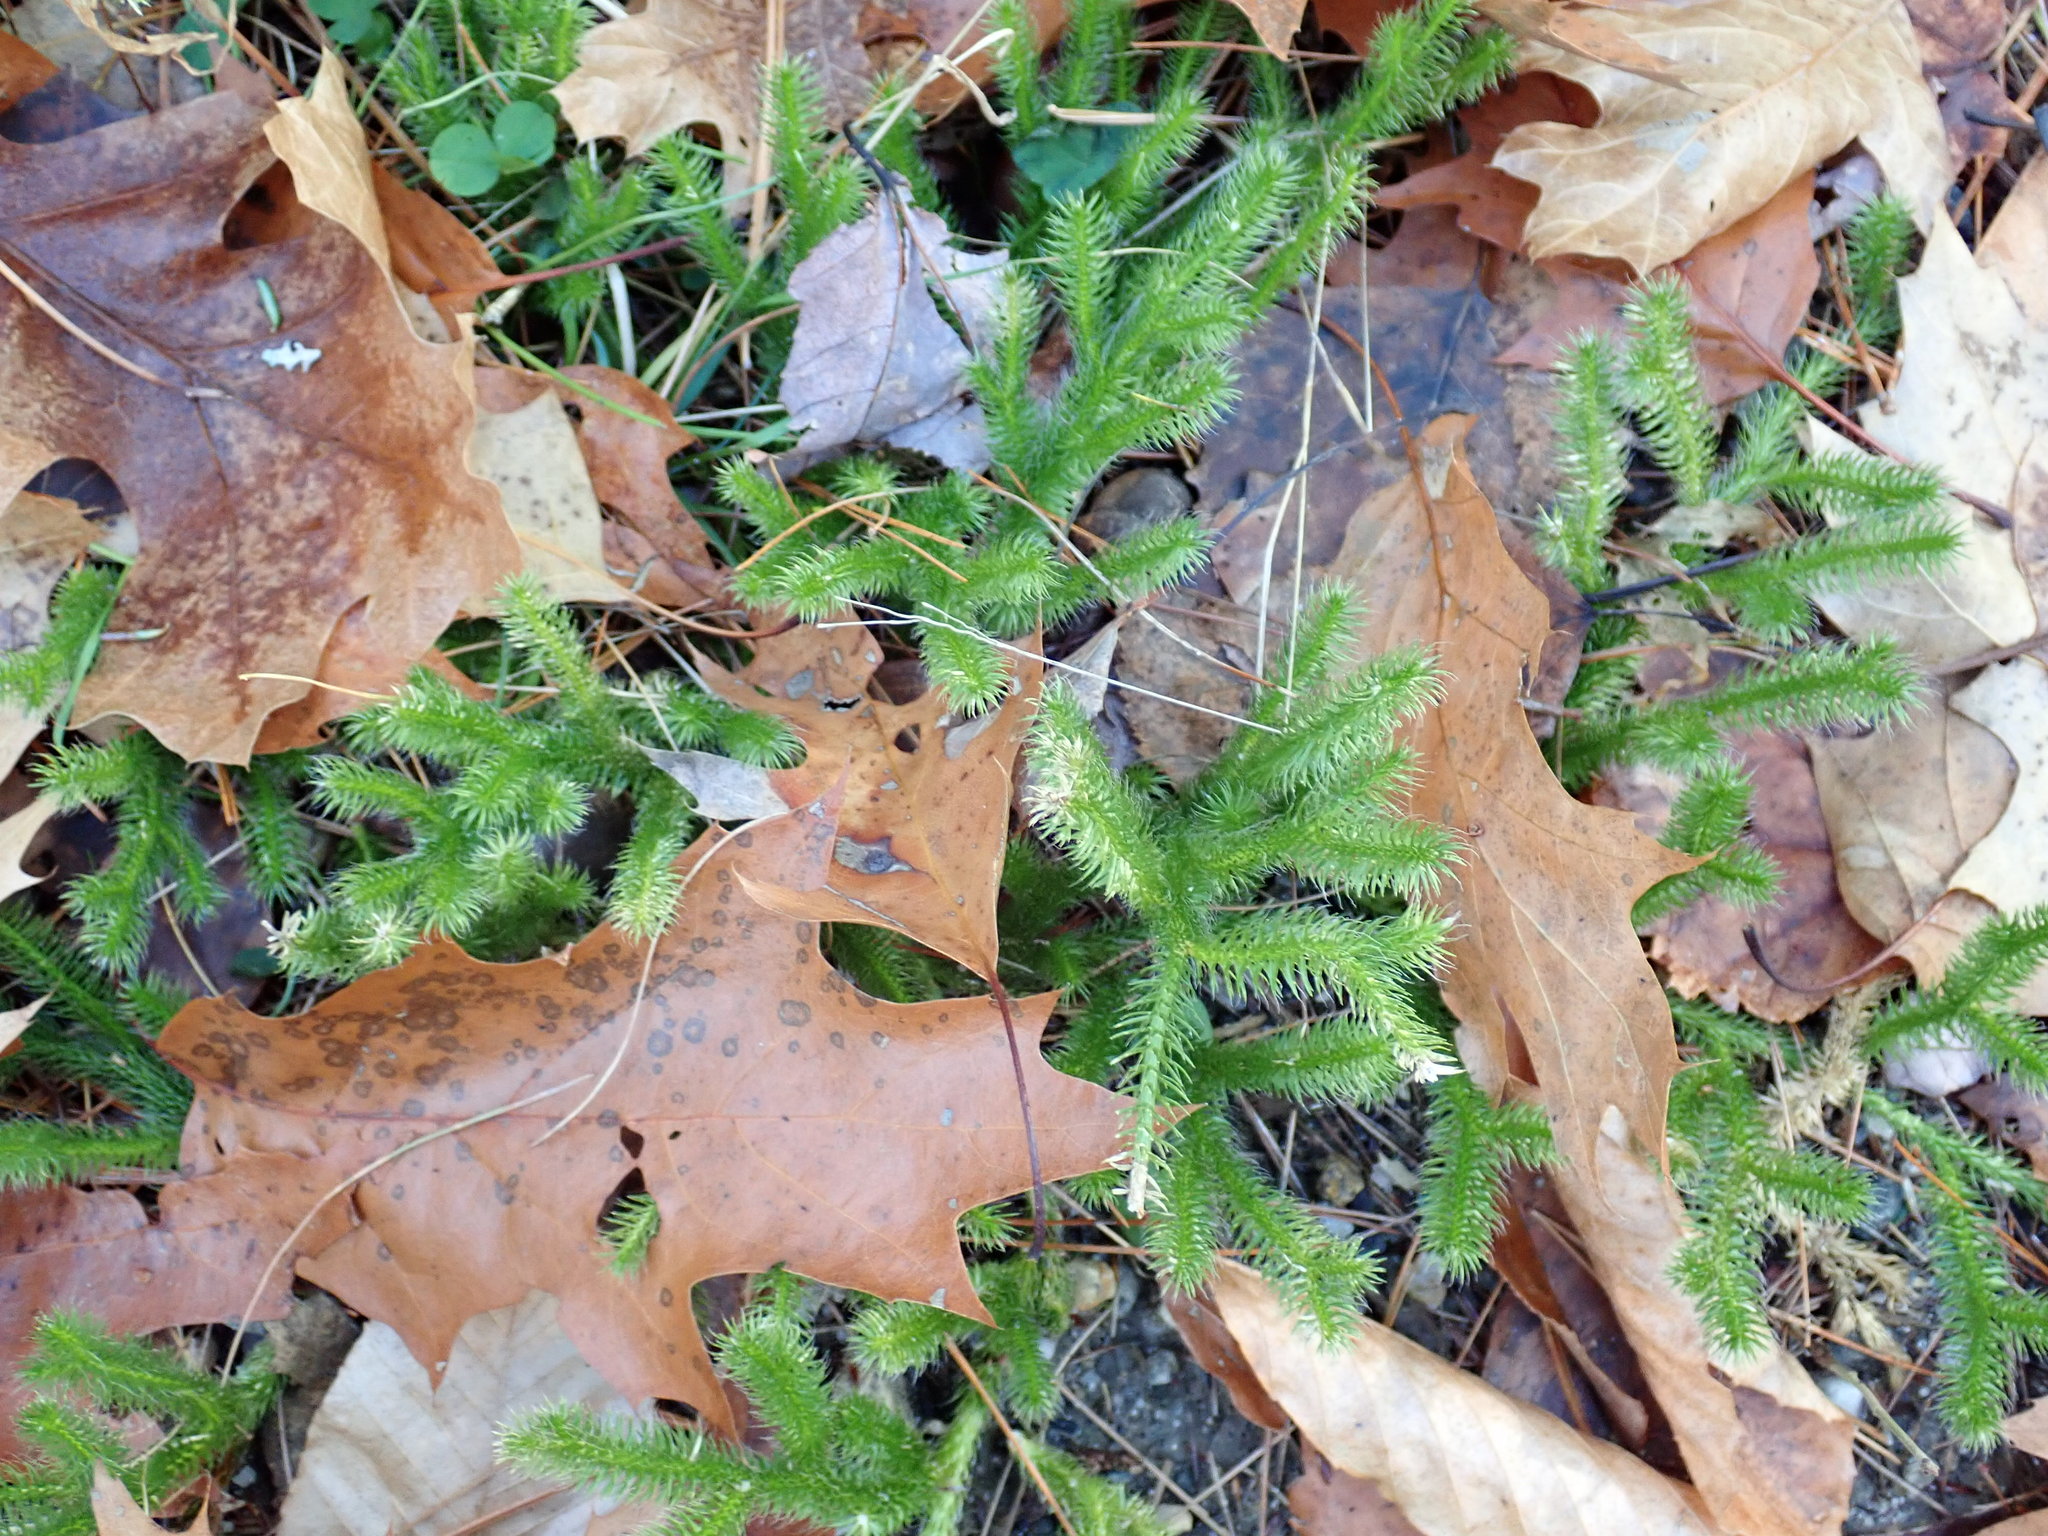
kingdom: Plantae
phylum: Tracheophyta
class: Lycopodiopsida
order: Lycopodiales
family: Lycopodiaceae
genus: Lycopodium
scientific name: Lycopodium clavatum
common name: Stag's-horn clubmoss
